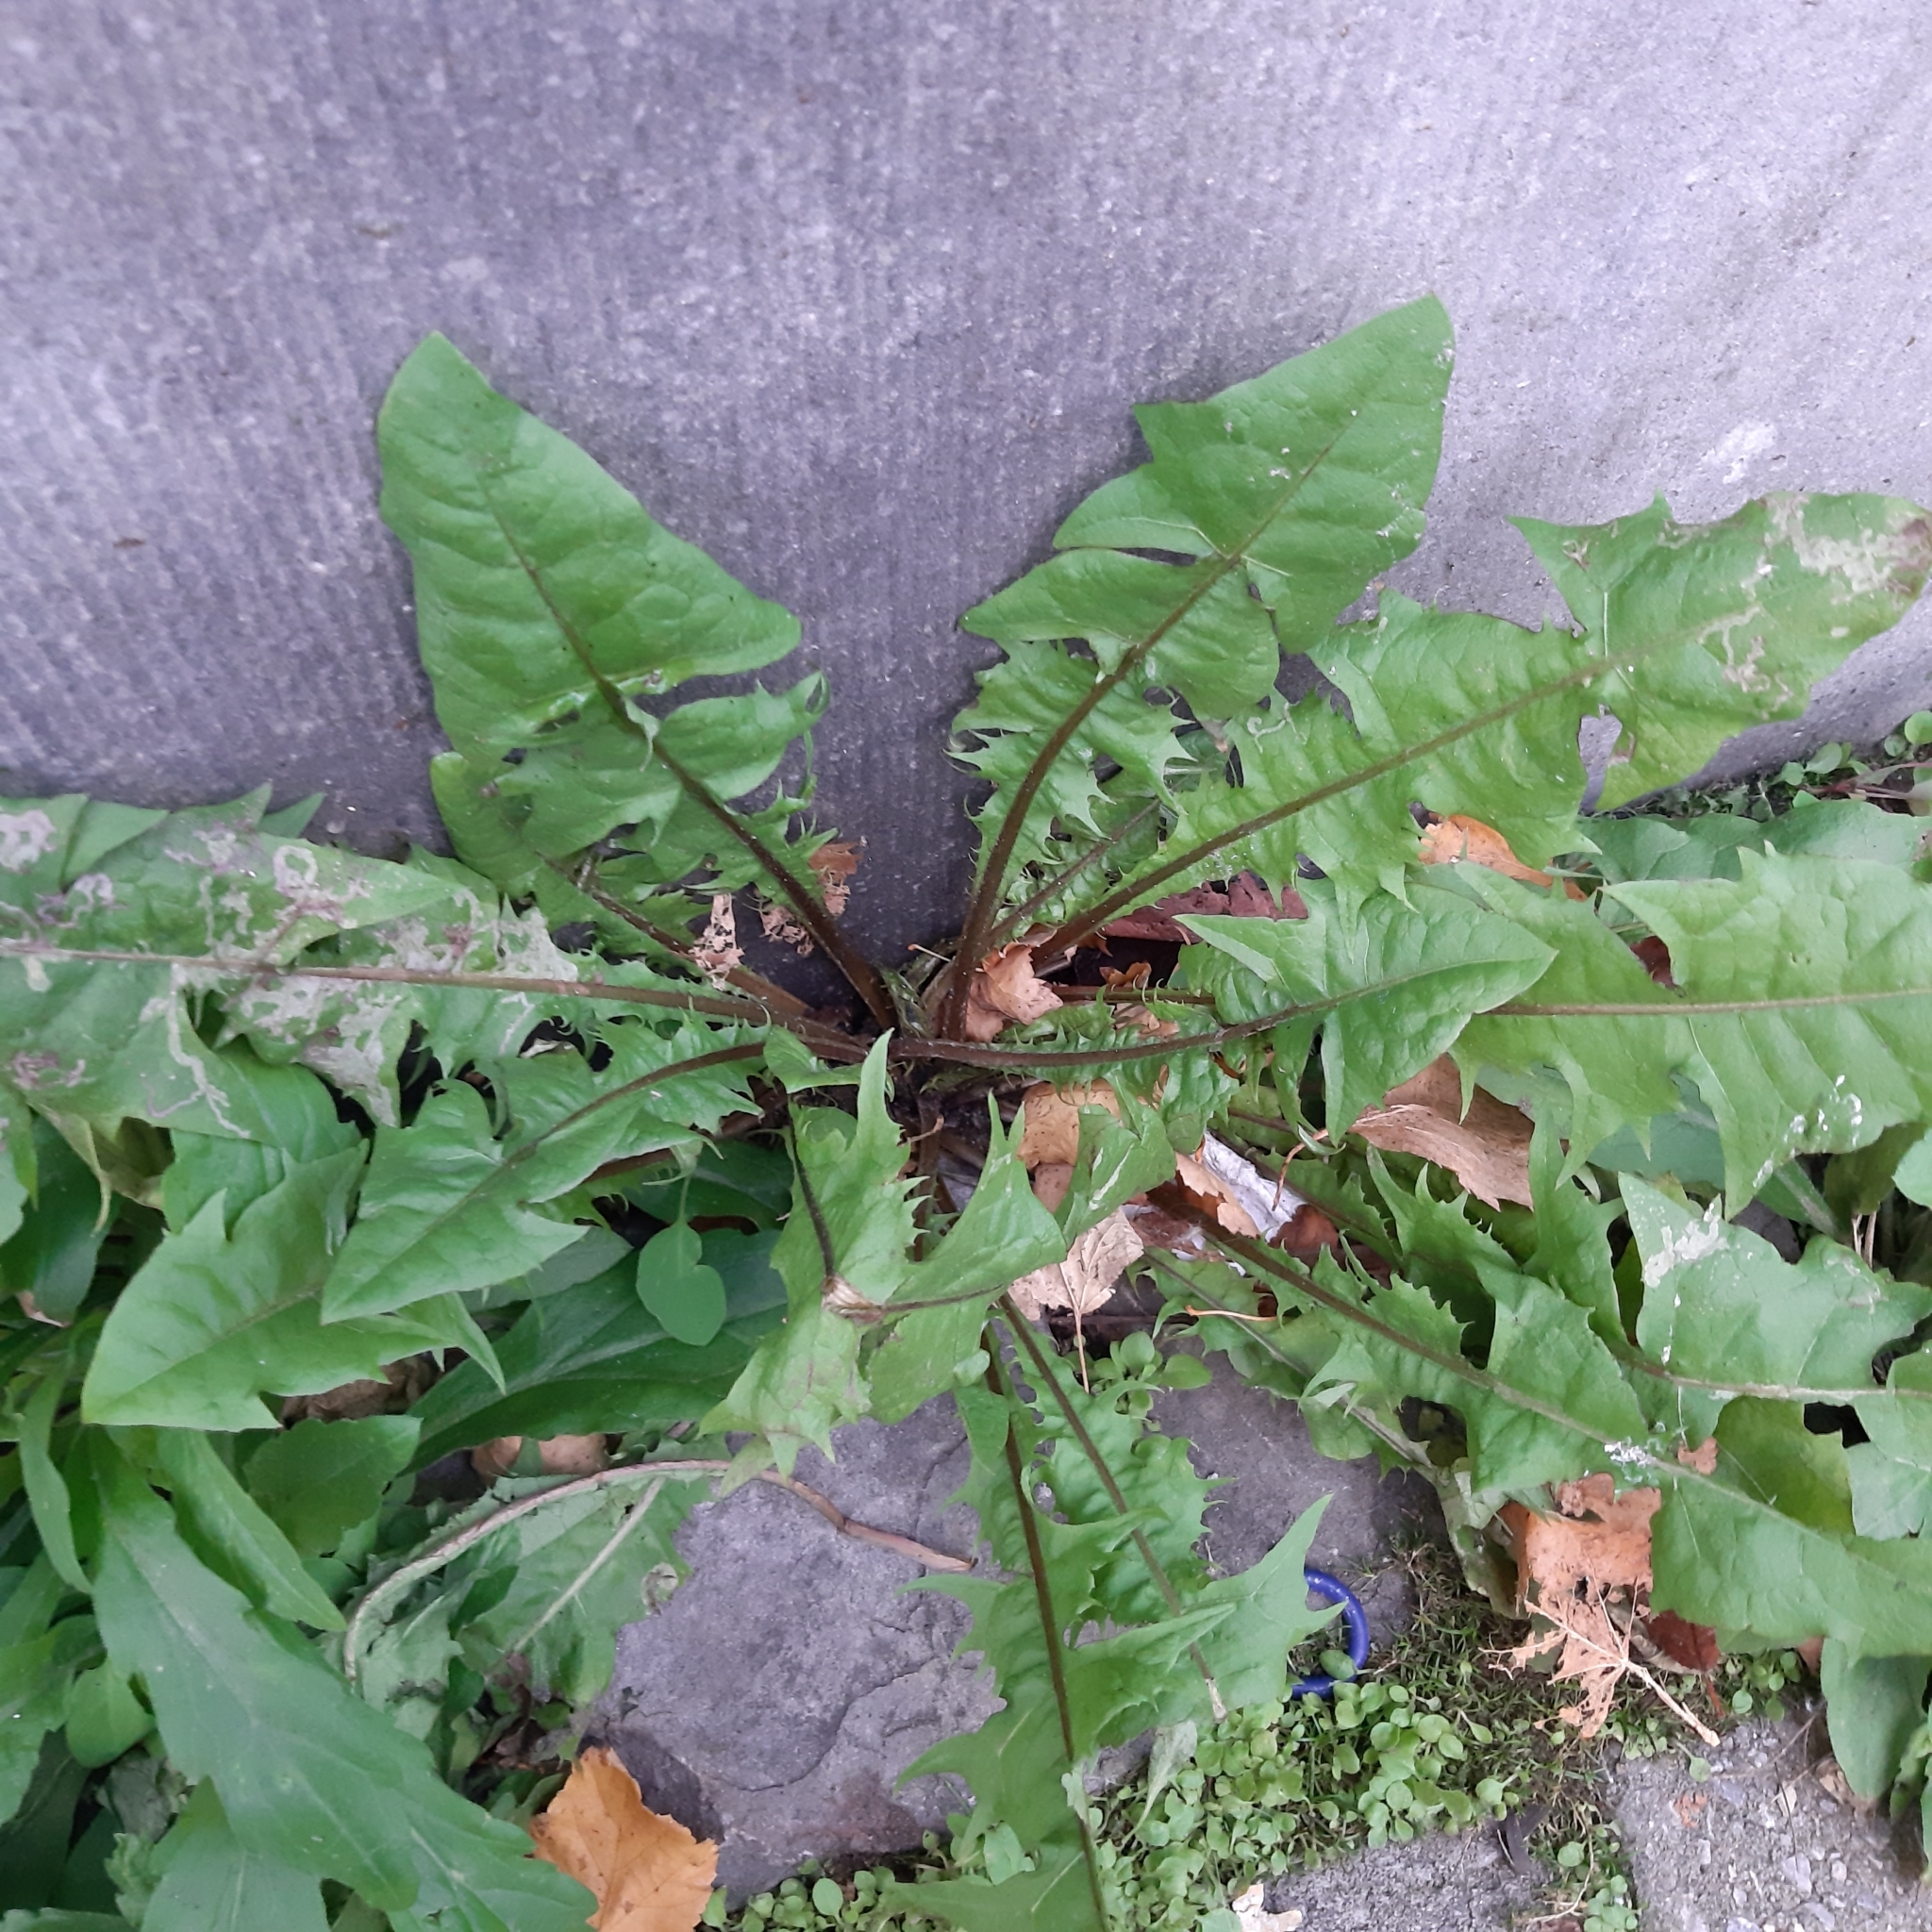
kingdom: Plantae
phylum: Tracheophyta
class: Magnoliopsida
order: Asterales
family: Asteraceae
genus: Taraxacum
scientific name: Taraxacum officinale
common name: Common dandelion
